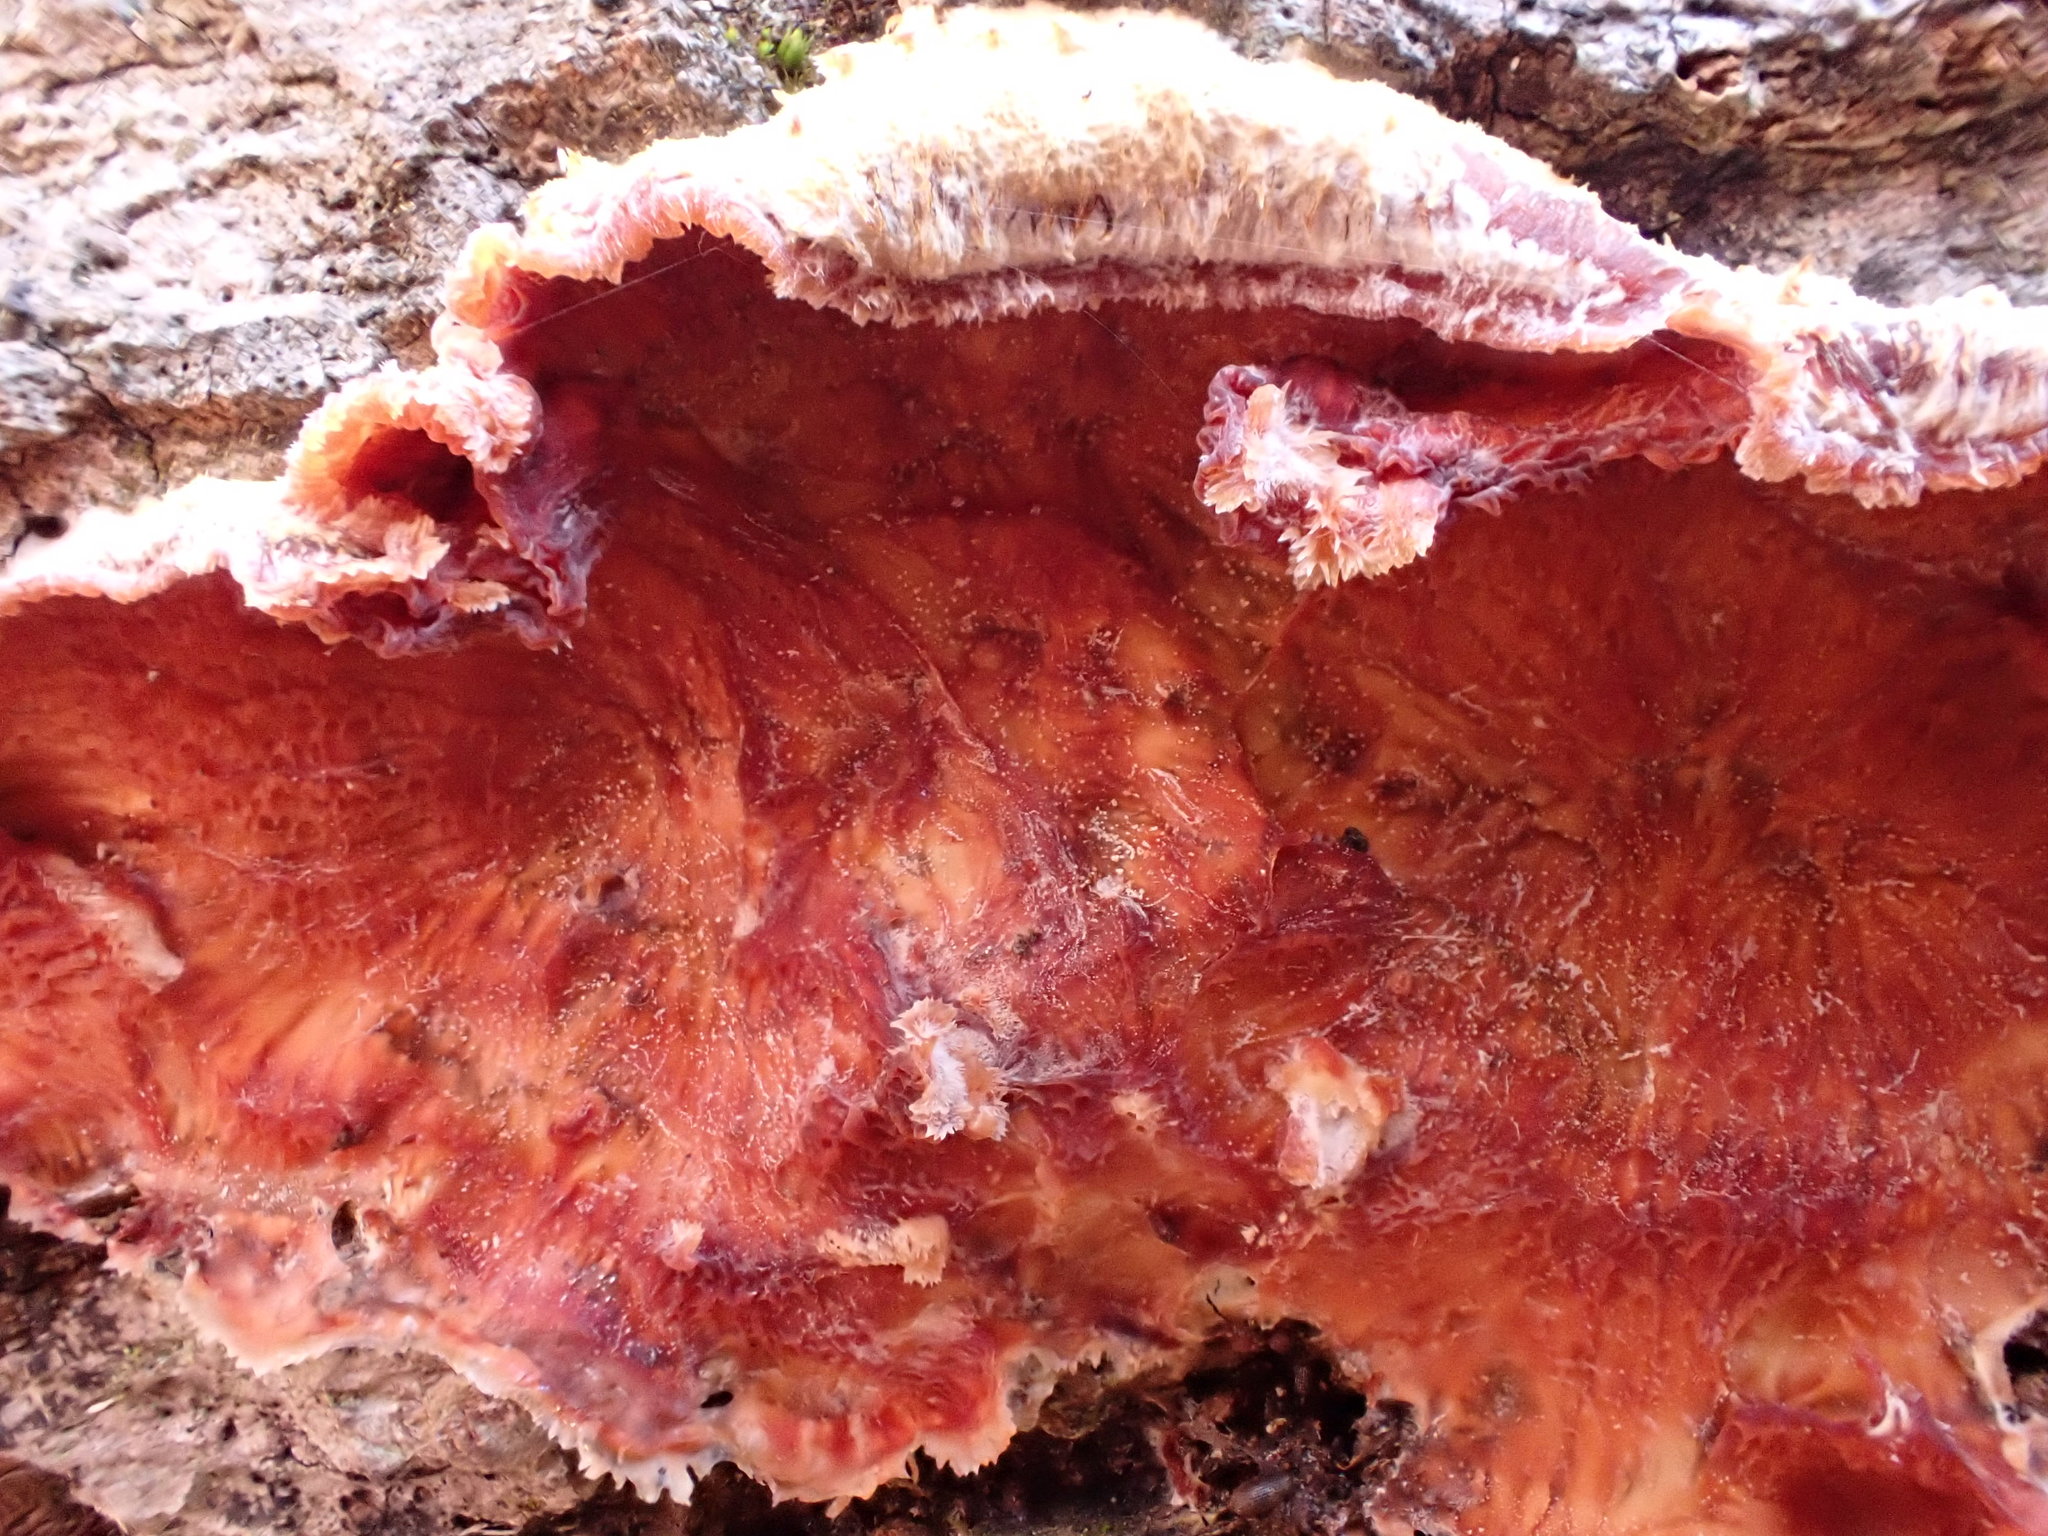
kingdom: Fungi
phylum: Basidiomycota
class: Agaricomycetes
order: Polyporales
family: Meruliaceae
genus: Phlebia
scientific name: Phlebia tremellosa
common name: Jelly rot
